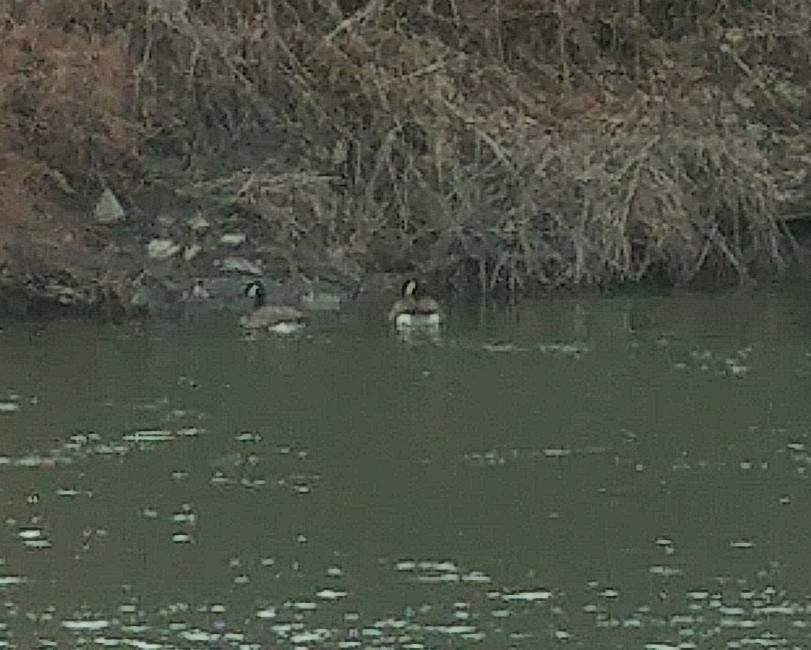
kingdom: Animalia
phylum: Chordata
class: Aves
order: Anseriformes
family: Anatidae
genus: Branta
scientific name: Branta canadensis
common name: Canada goose
